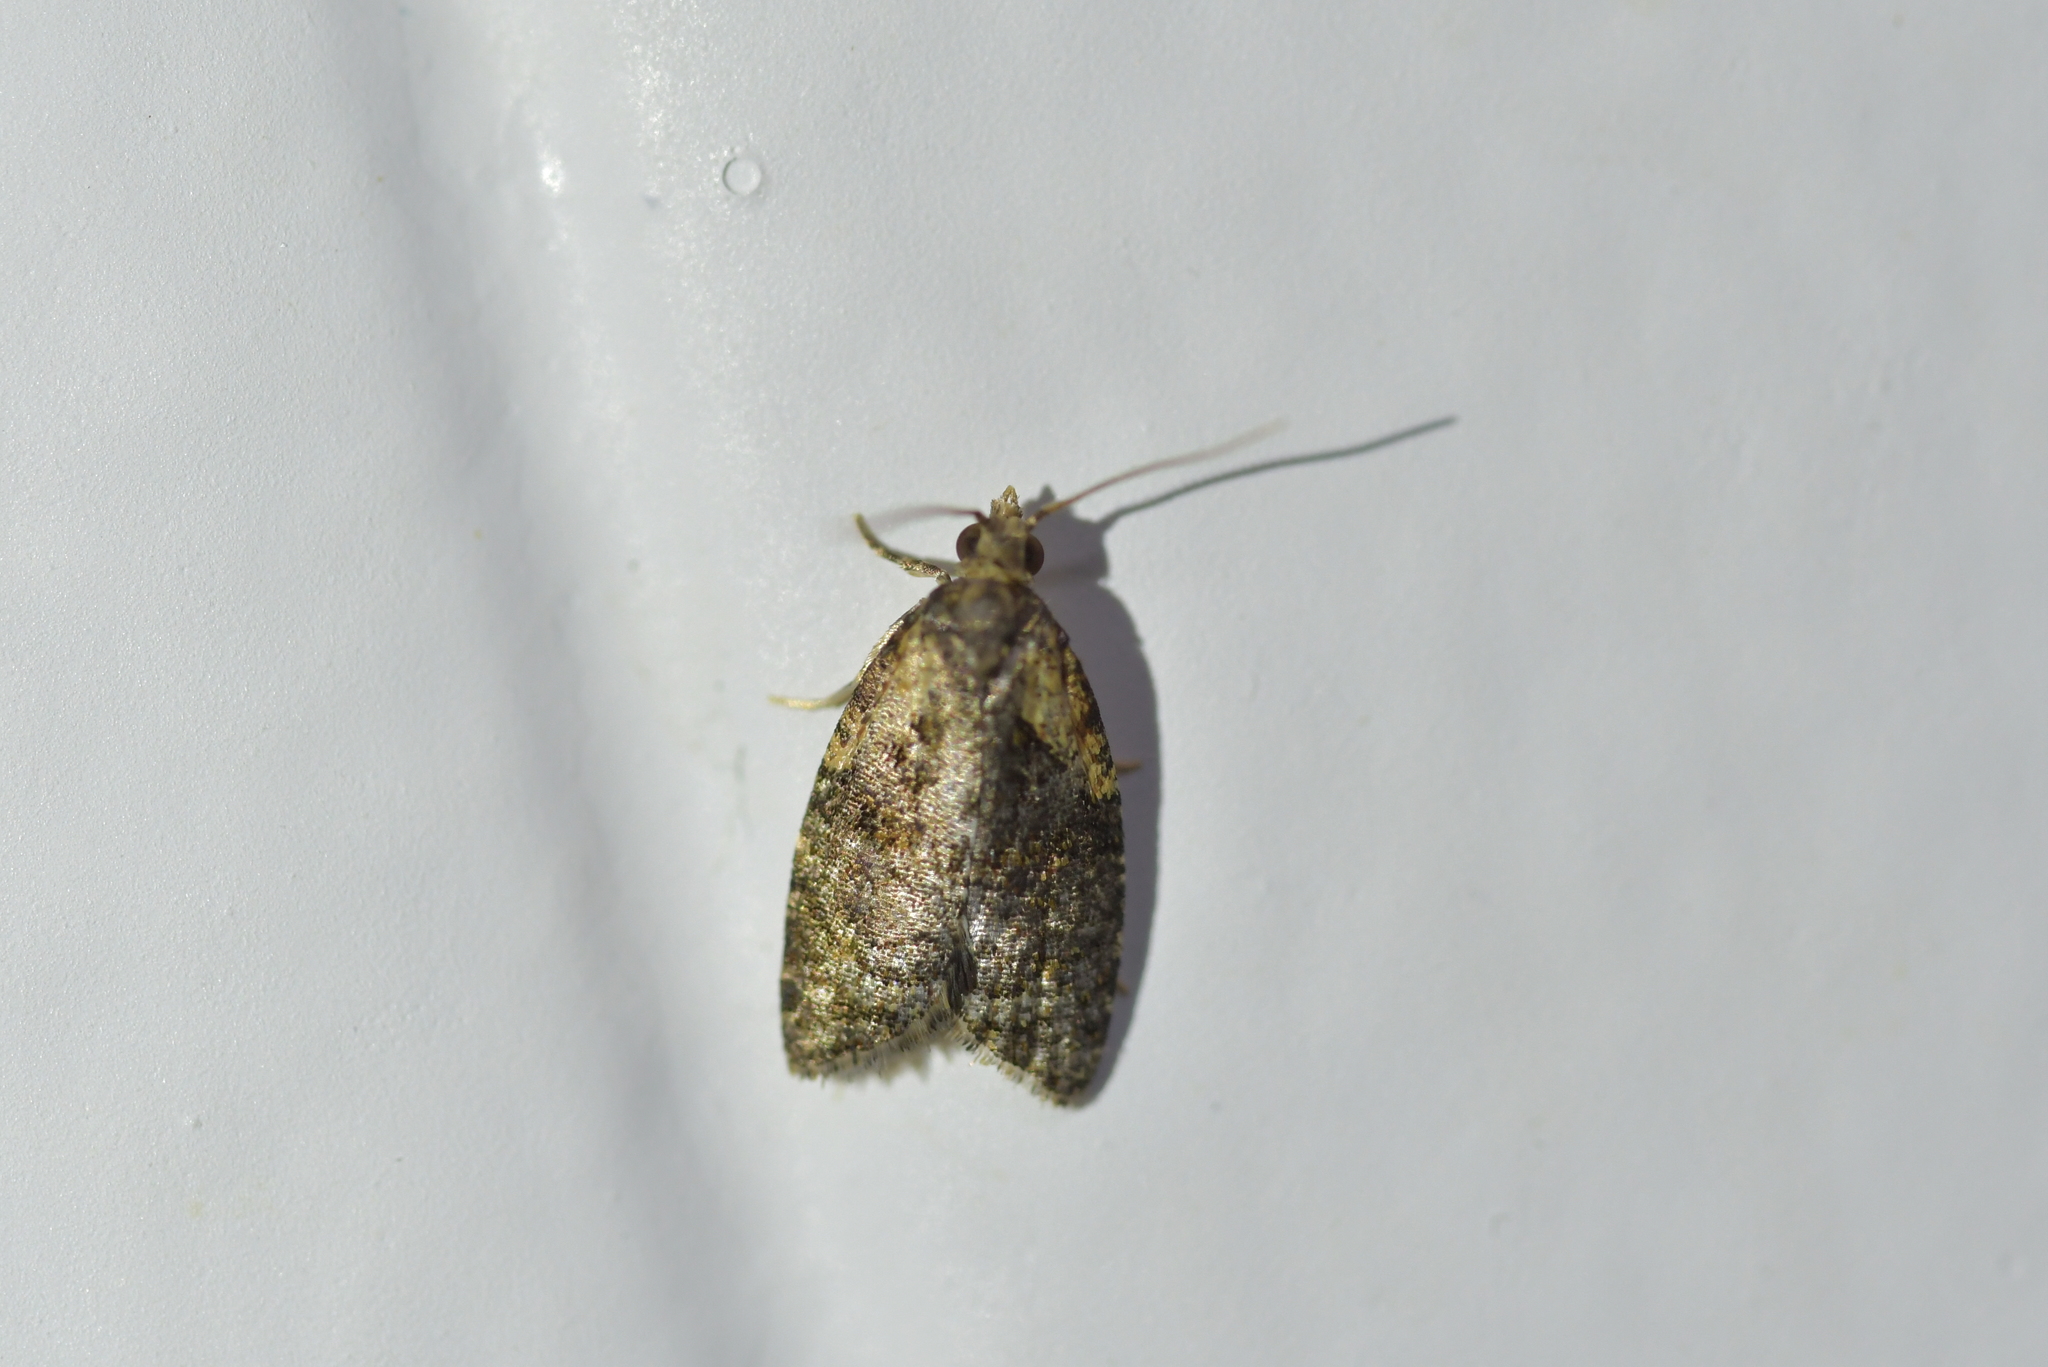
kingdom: Animalia
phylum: Arthropoda
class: Insecta
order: Lepidoptera
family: Tortricidae
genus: Capua
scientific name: Capua intractana
